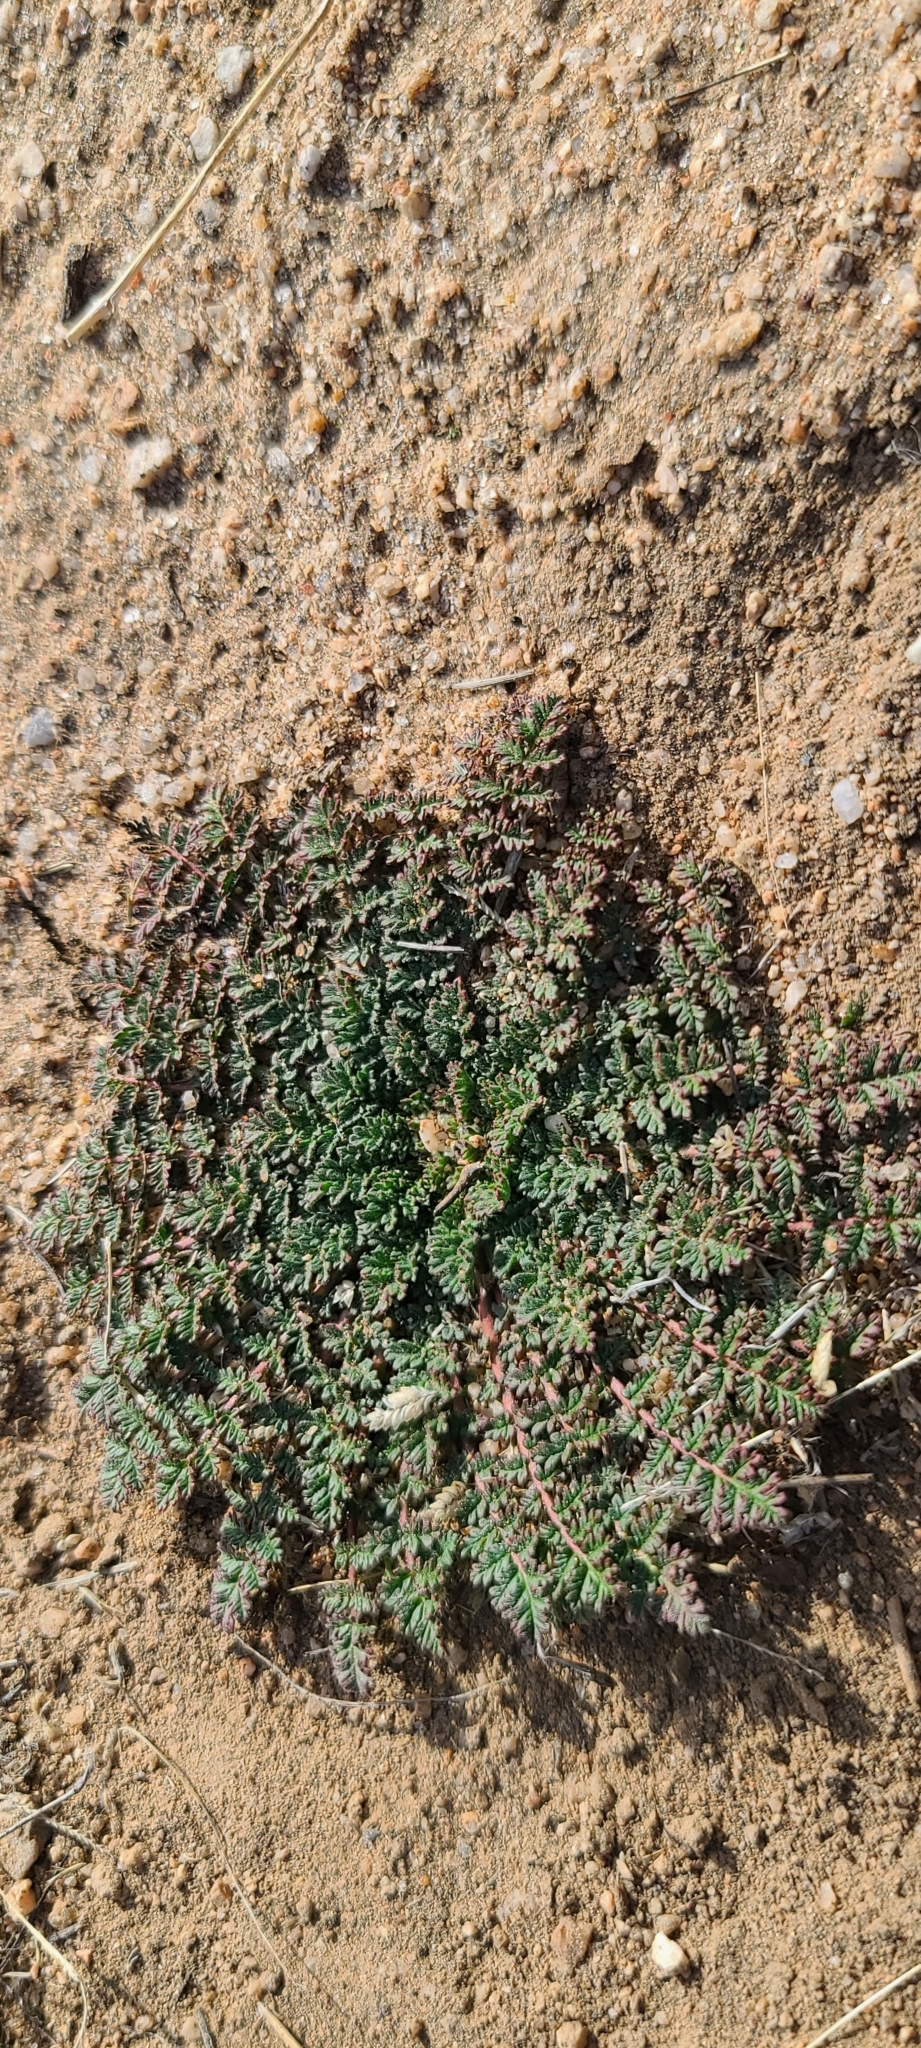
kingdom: Plantae
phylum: Tracheophyta
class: Magnoliopsida
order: Geraniales
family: Geraniaceae
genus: Erodium
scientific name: Erodium cicutarium
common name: Common stork's-bill
